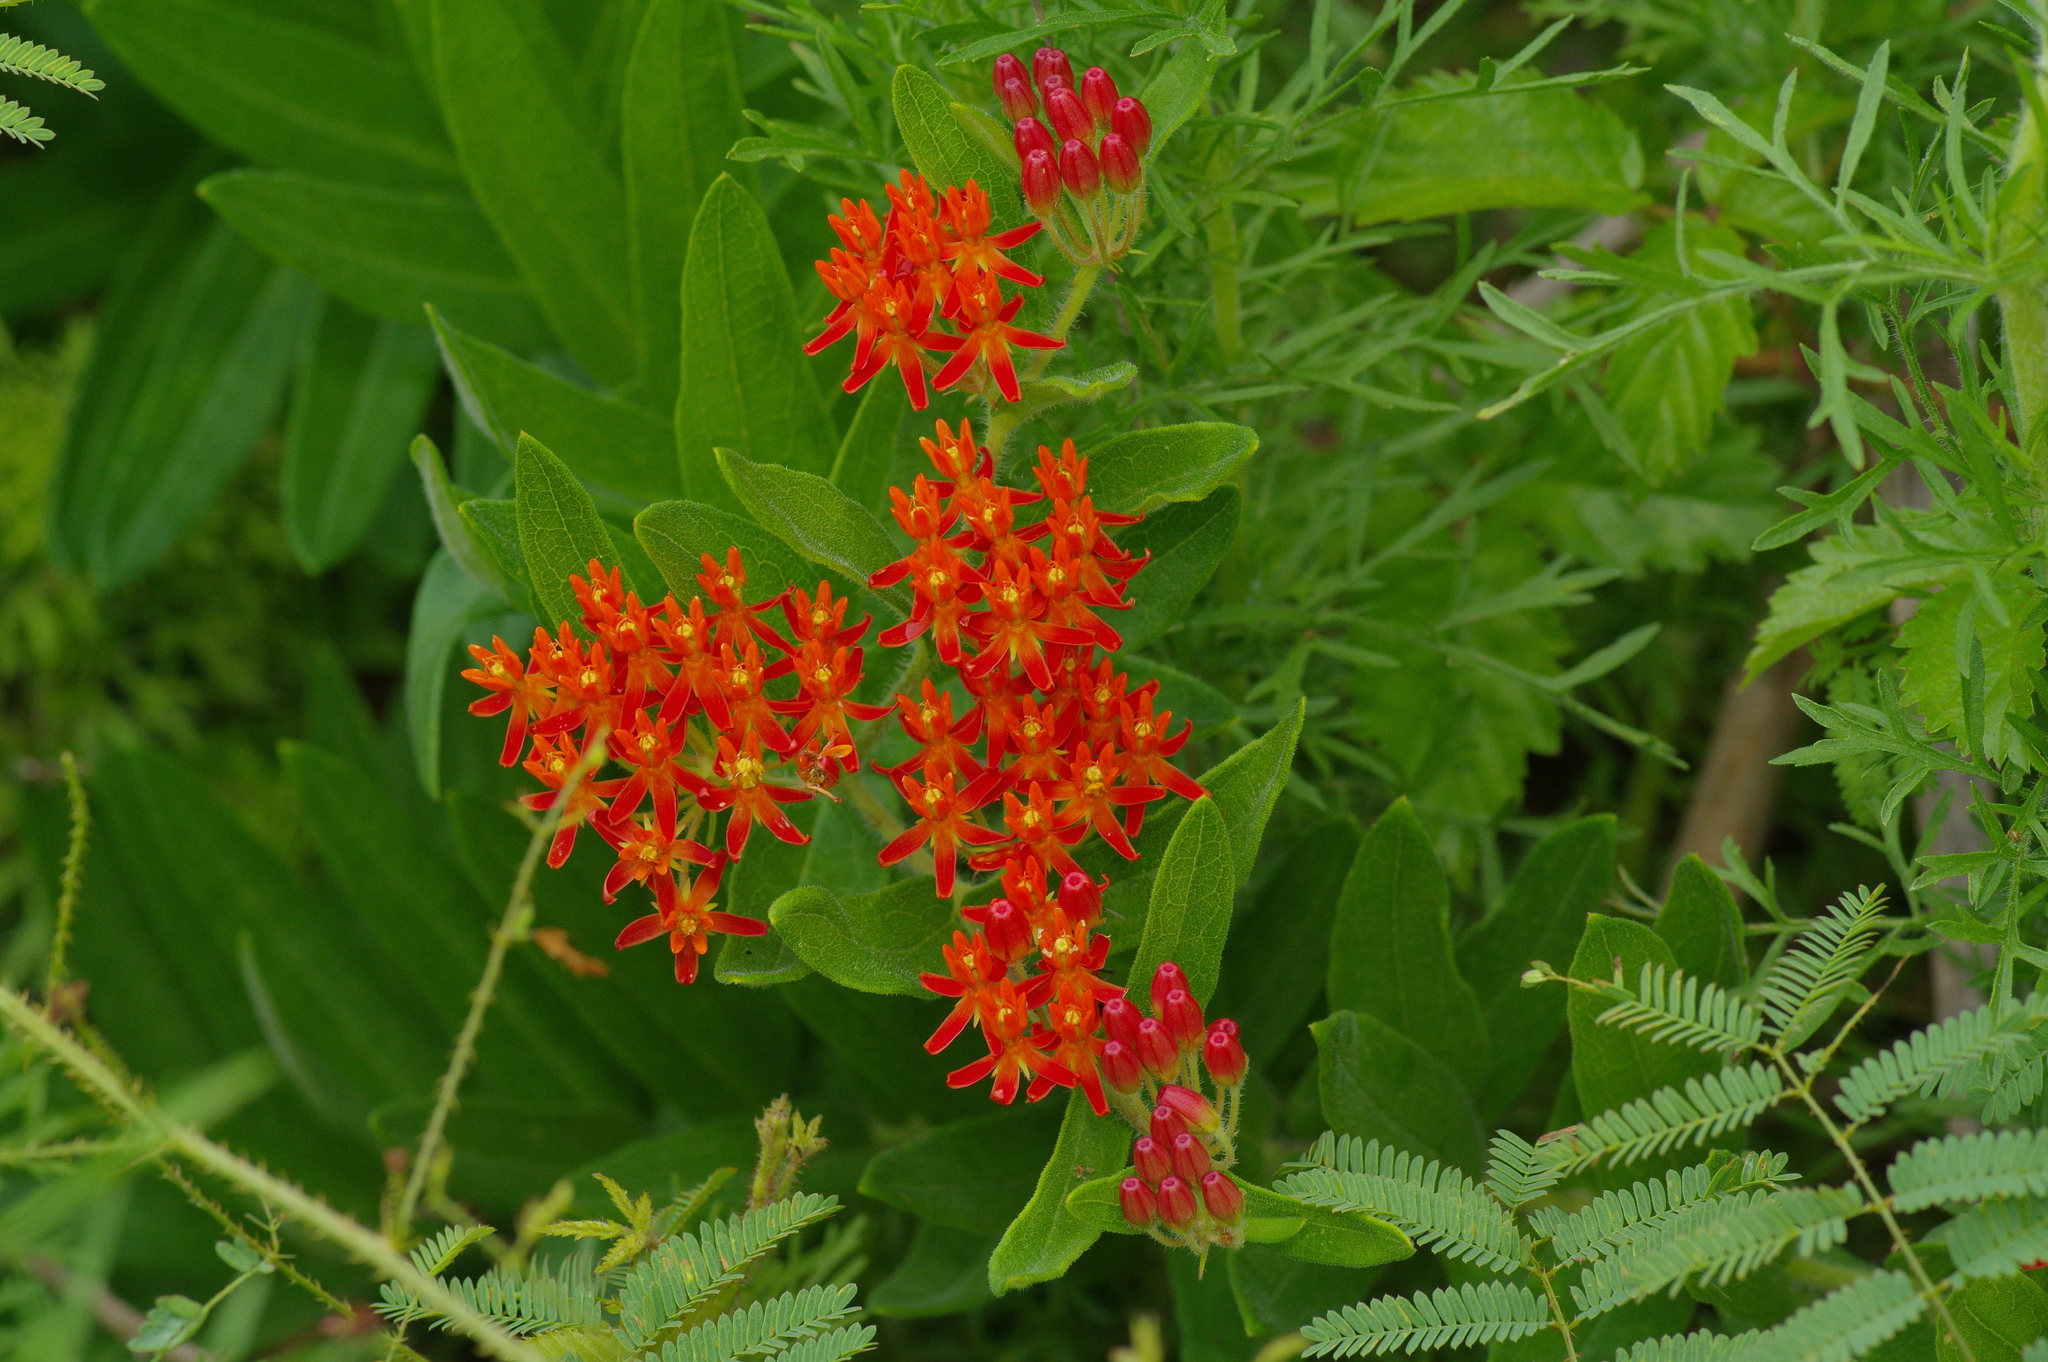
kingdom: Plantae
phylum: Tracheophyta
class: Magnoliopsida
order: Gentianales
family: Apocynaceae
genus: Asclepias
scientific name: Asclepias tuberosa
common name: Butterfly milkweed
